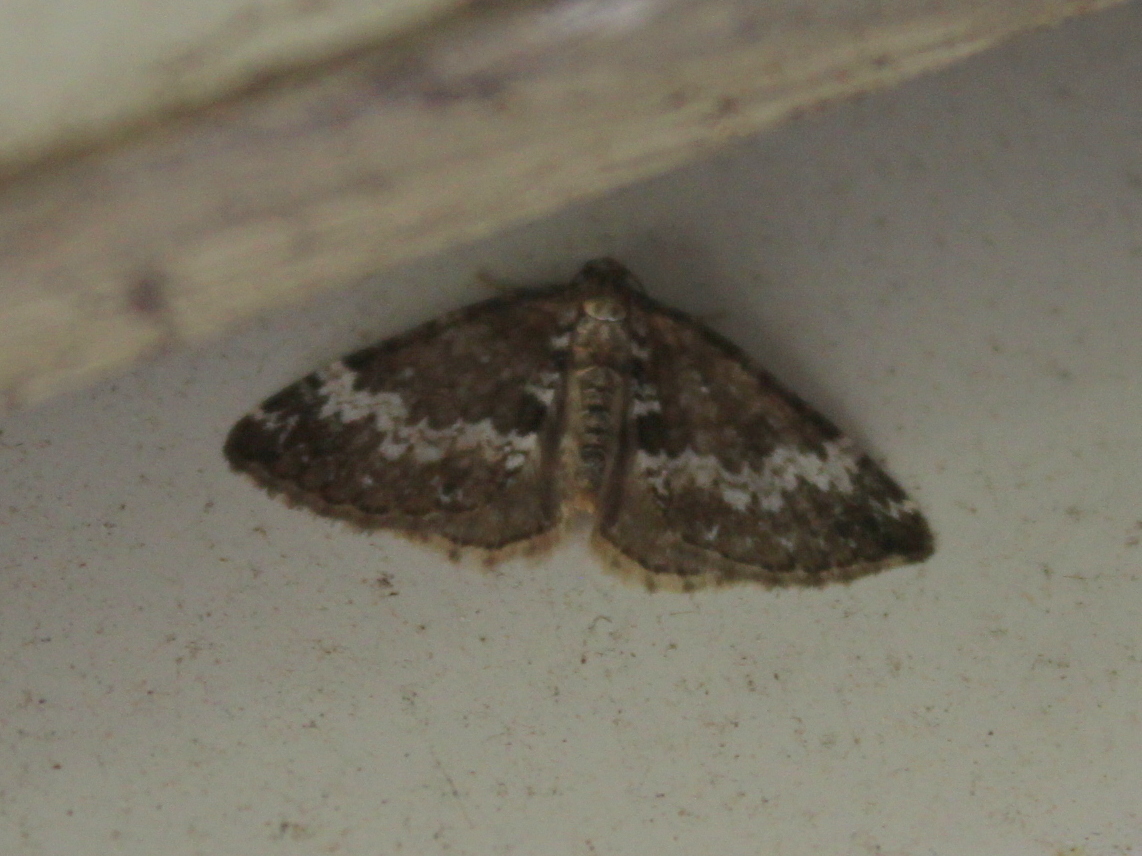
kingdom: Animalia
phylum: Arthropoda
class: Insecta
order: Lepidoptera
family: Geometridae
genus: Perizoma
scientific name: Perizoma alchemillata
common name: Small rivulet
